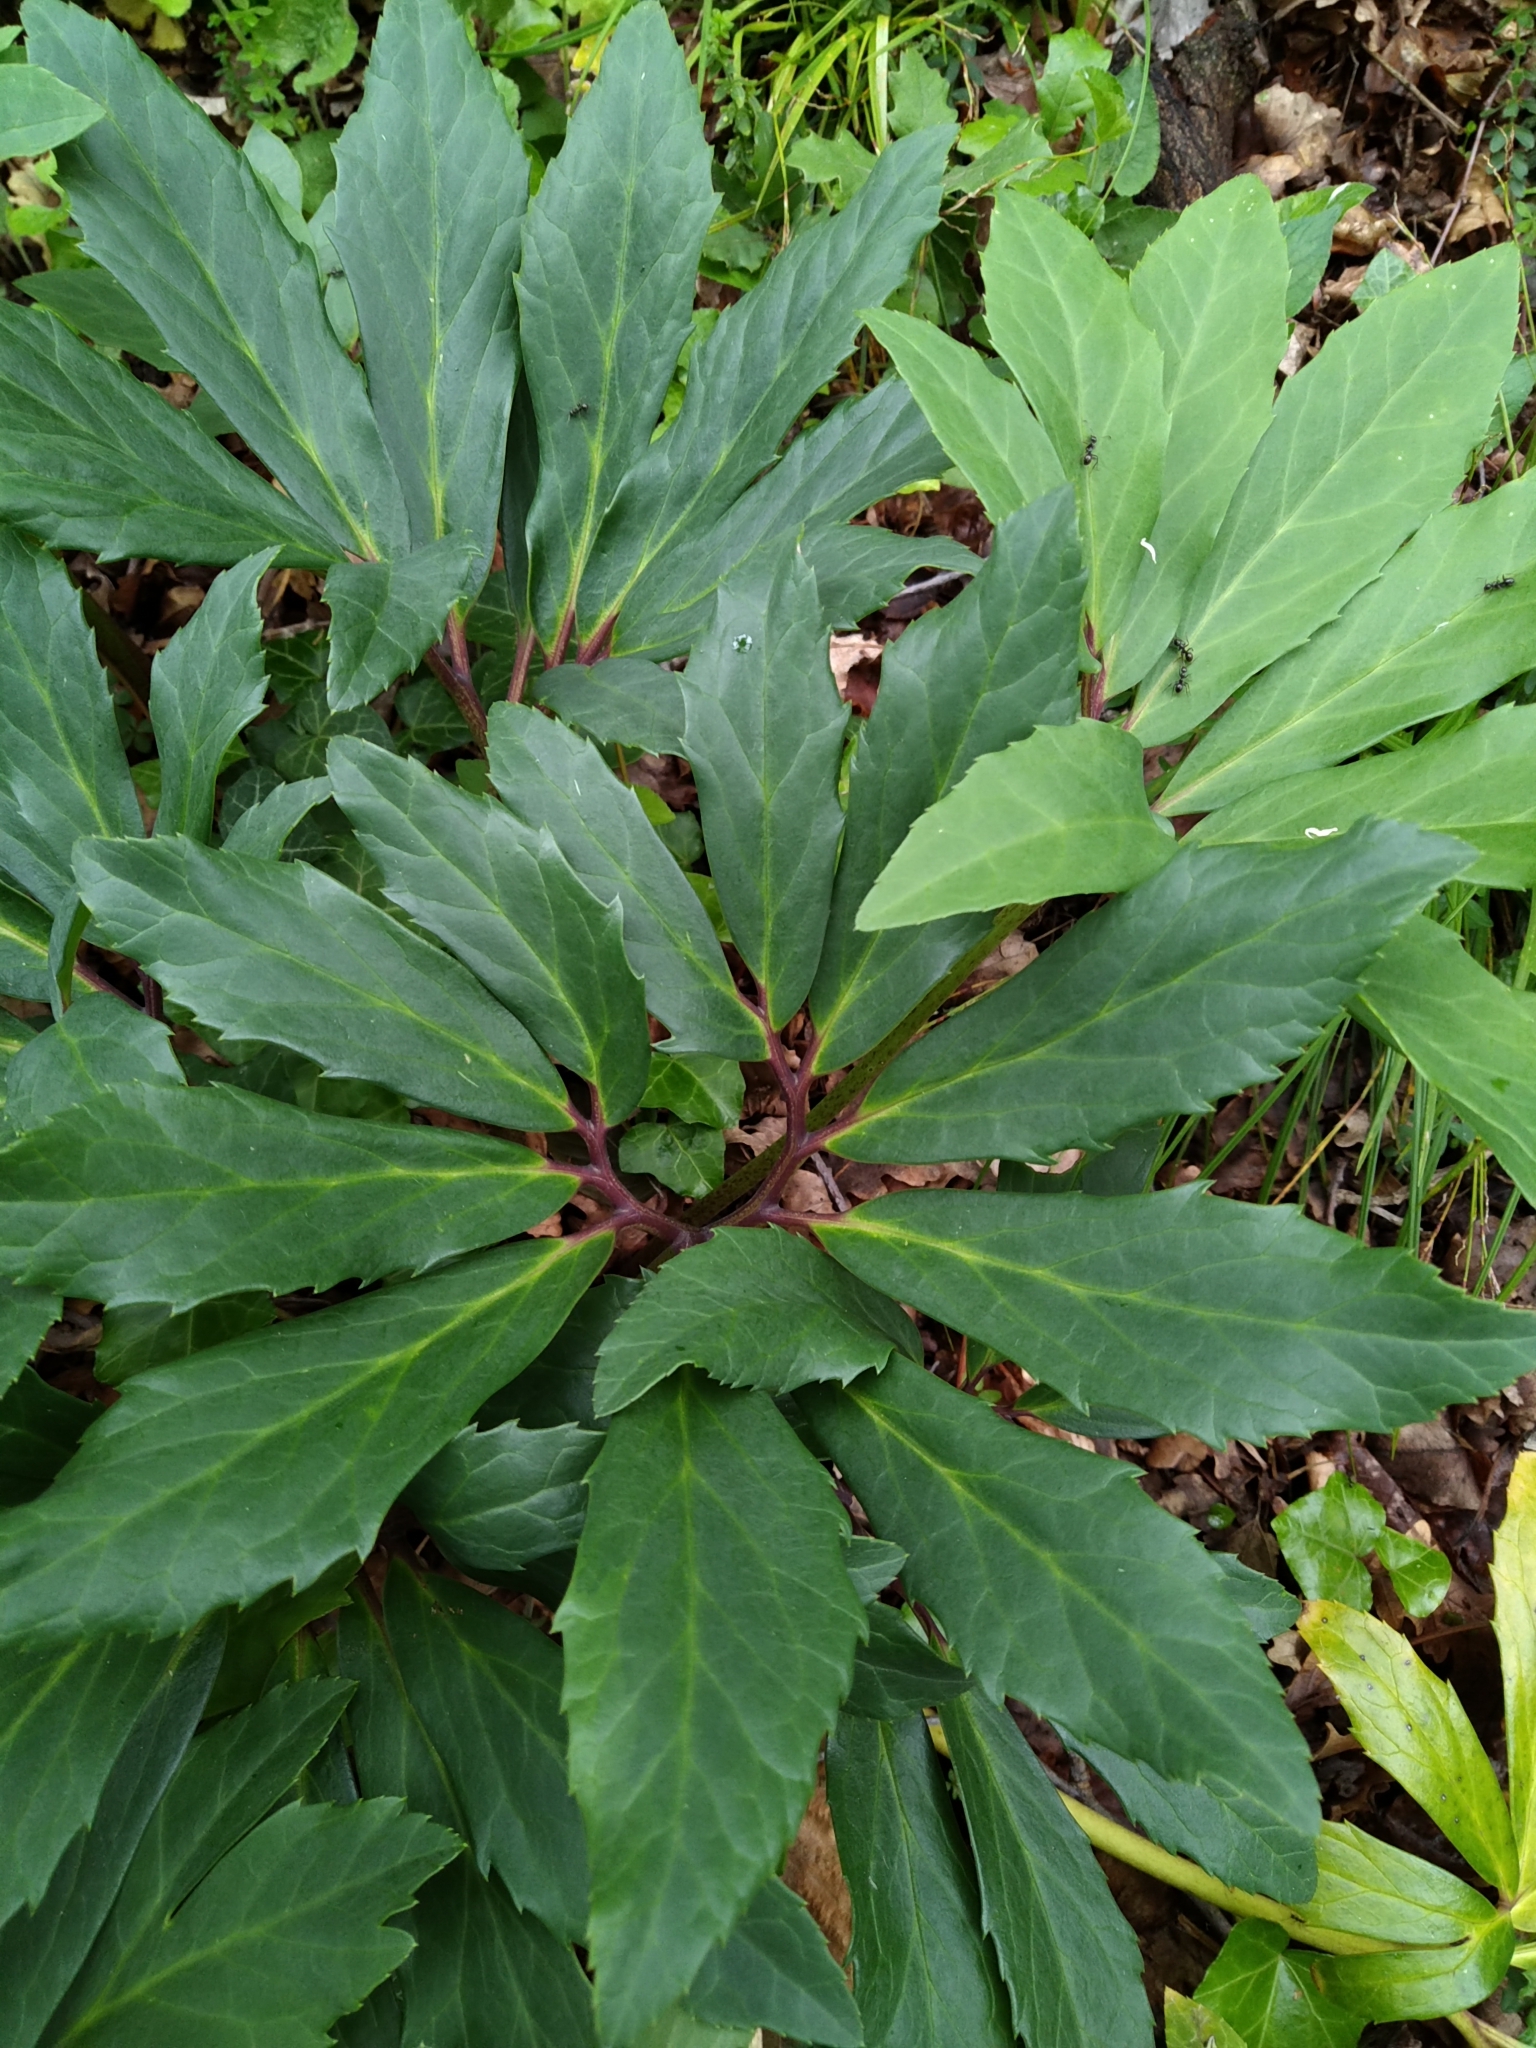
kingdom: Plantae
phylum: Tracheophyta
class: Magnoliopsida
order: Ranunculales
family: Ranunculaceae
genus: Helleborus
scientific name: Helleborus niger
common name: Black hellebore
